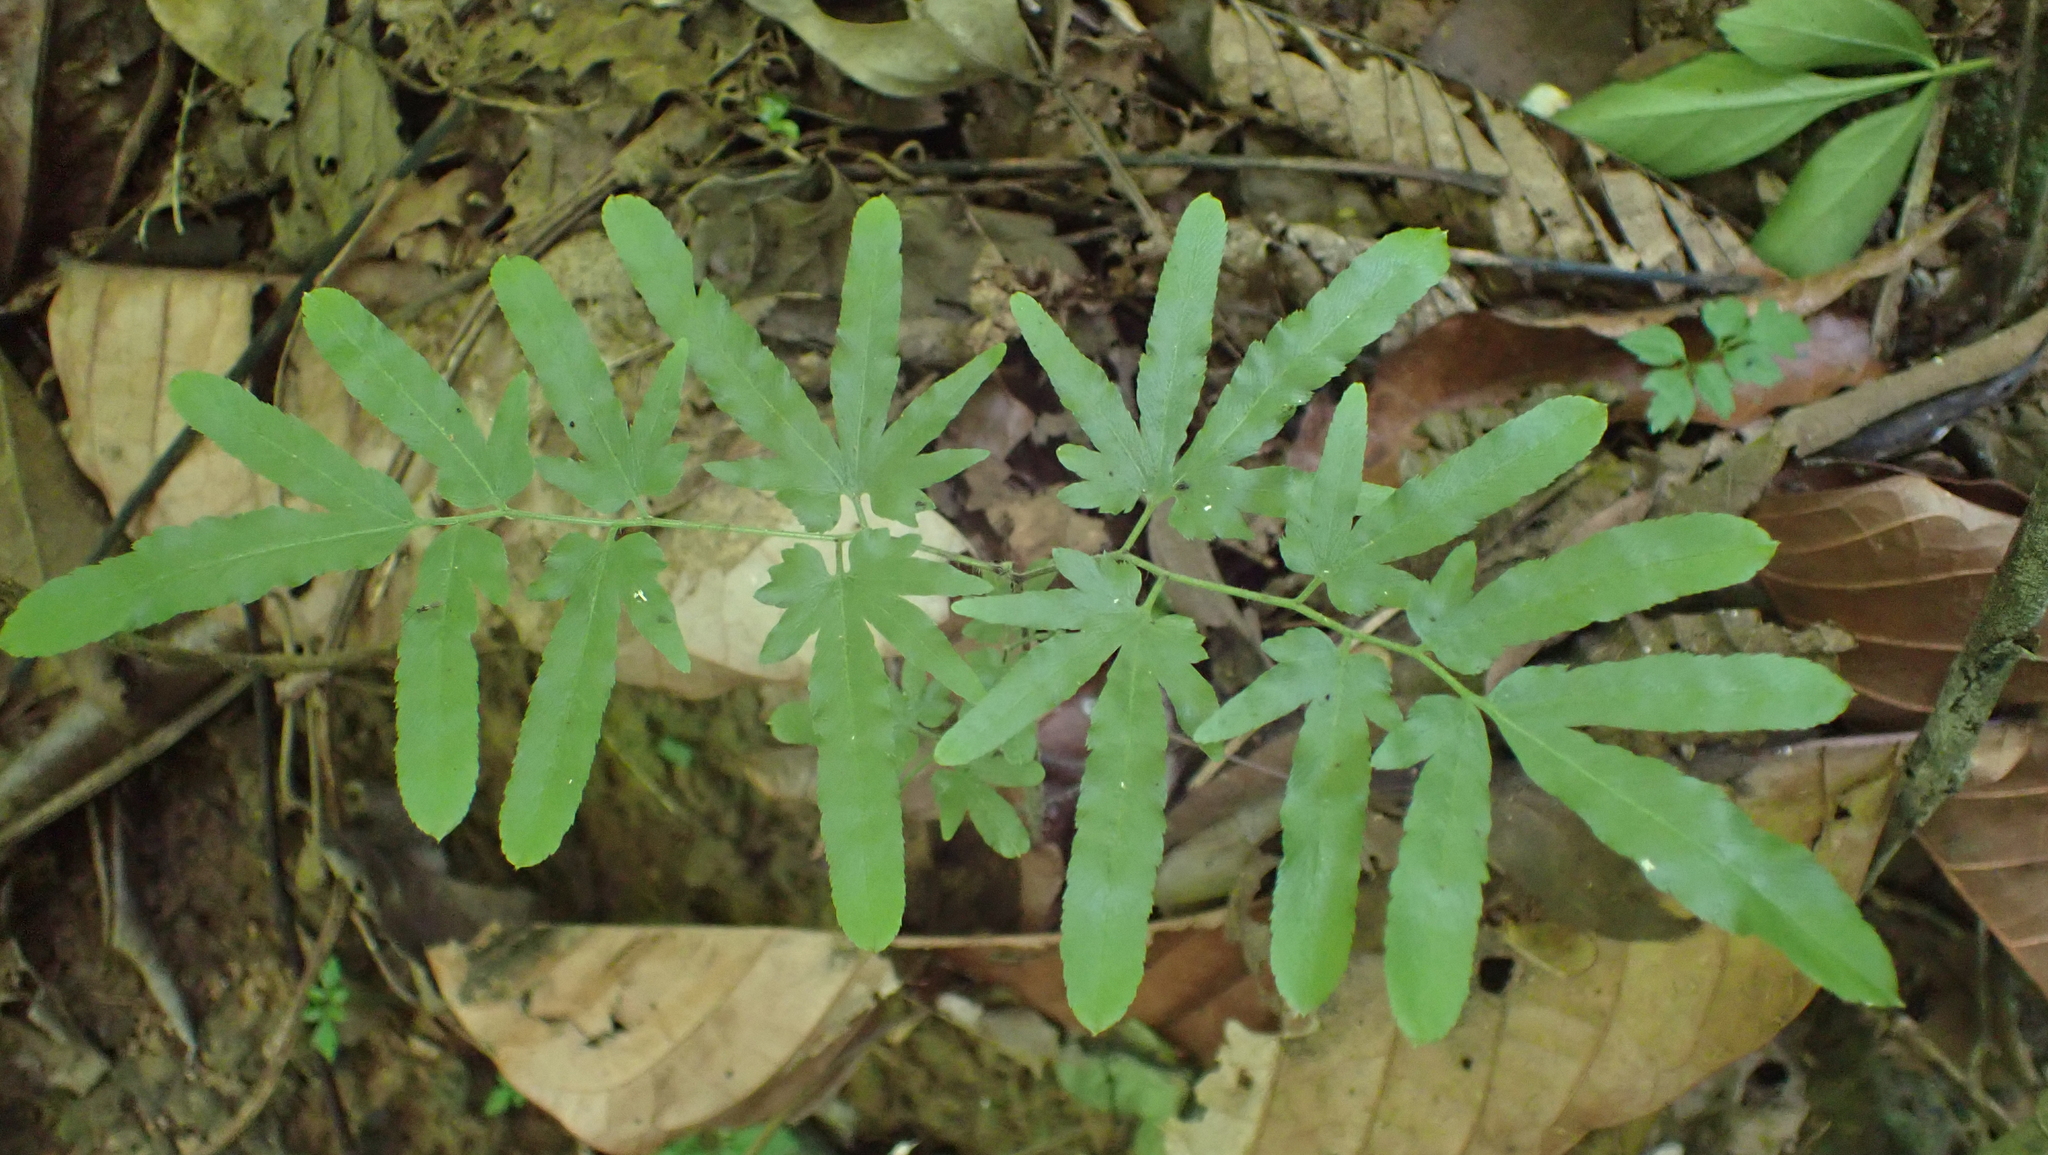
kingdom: Plantae
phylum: Tracheophyta
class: Polypodiopsida
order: Schizaeales
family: Lygodiaceae
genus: Lygodium
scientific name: Lygodium venustum
